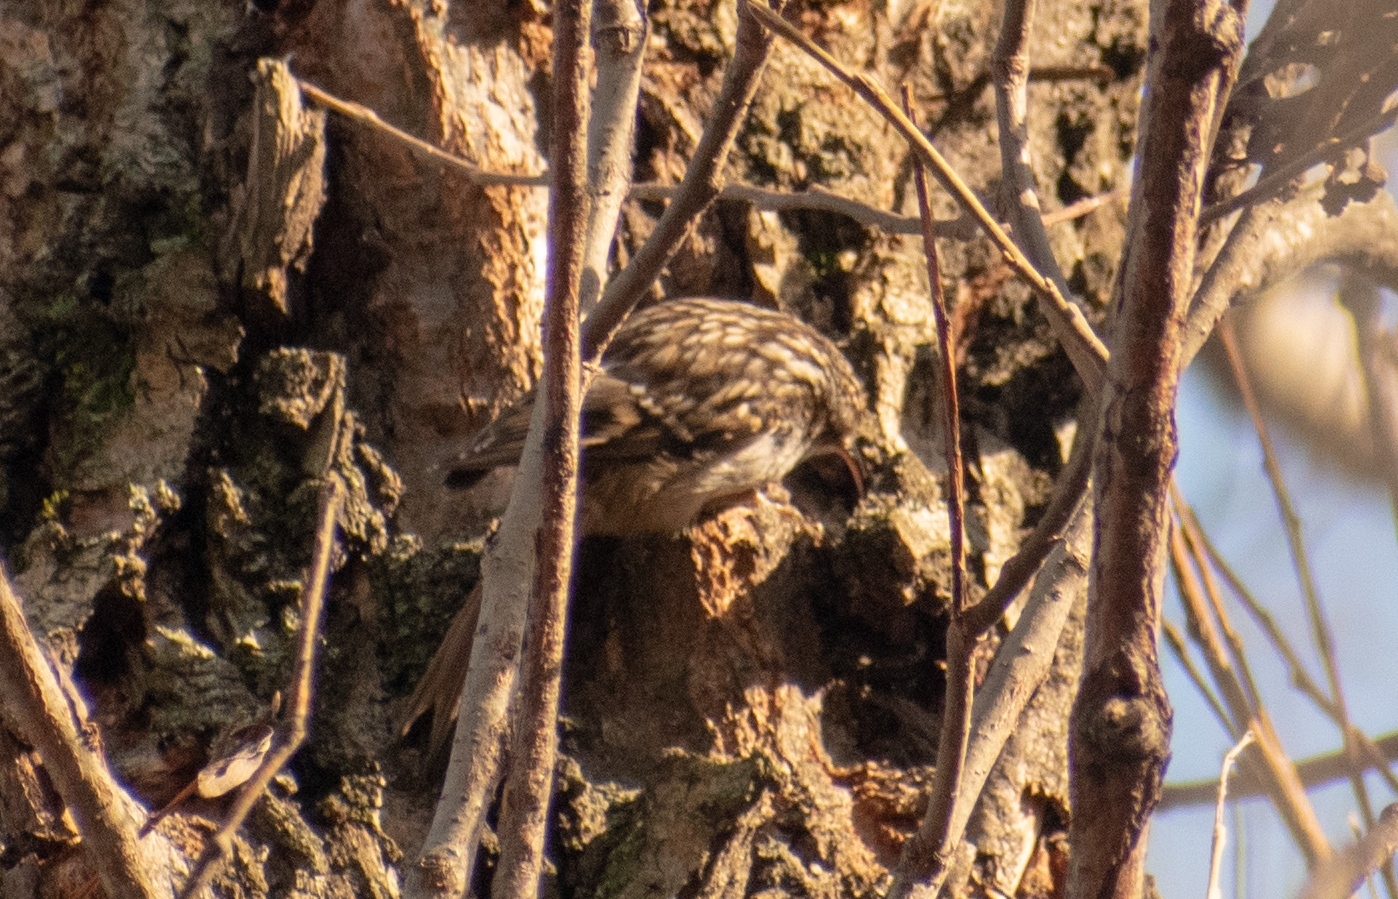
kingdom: Animalia
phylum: Chordata
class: Aves
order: Passeriformes
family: Certhiidae
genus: Certhia
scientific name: Certhia brachydactyla
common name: Short-toed treecreeper
